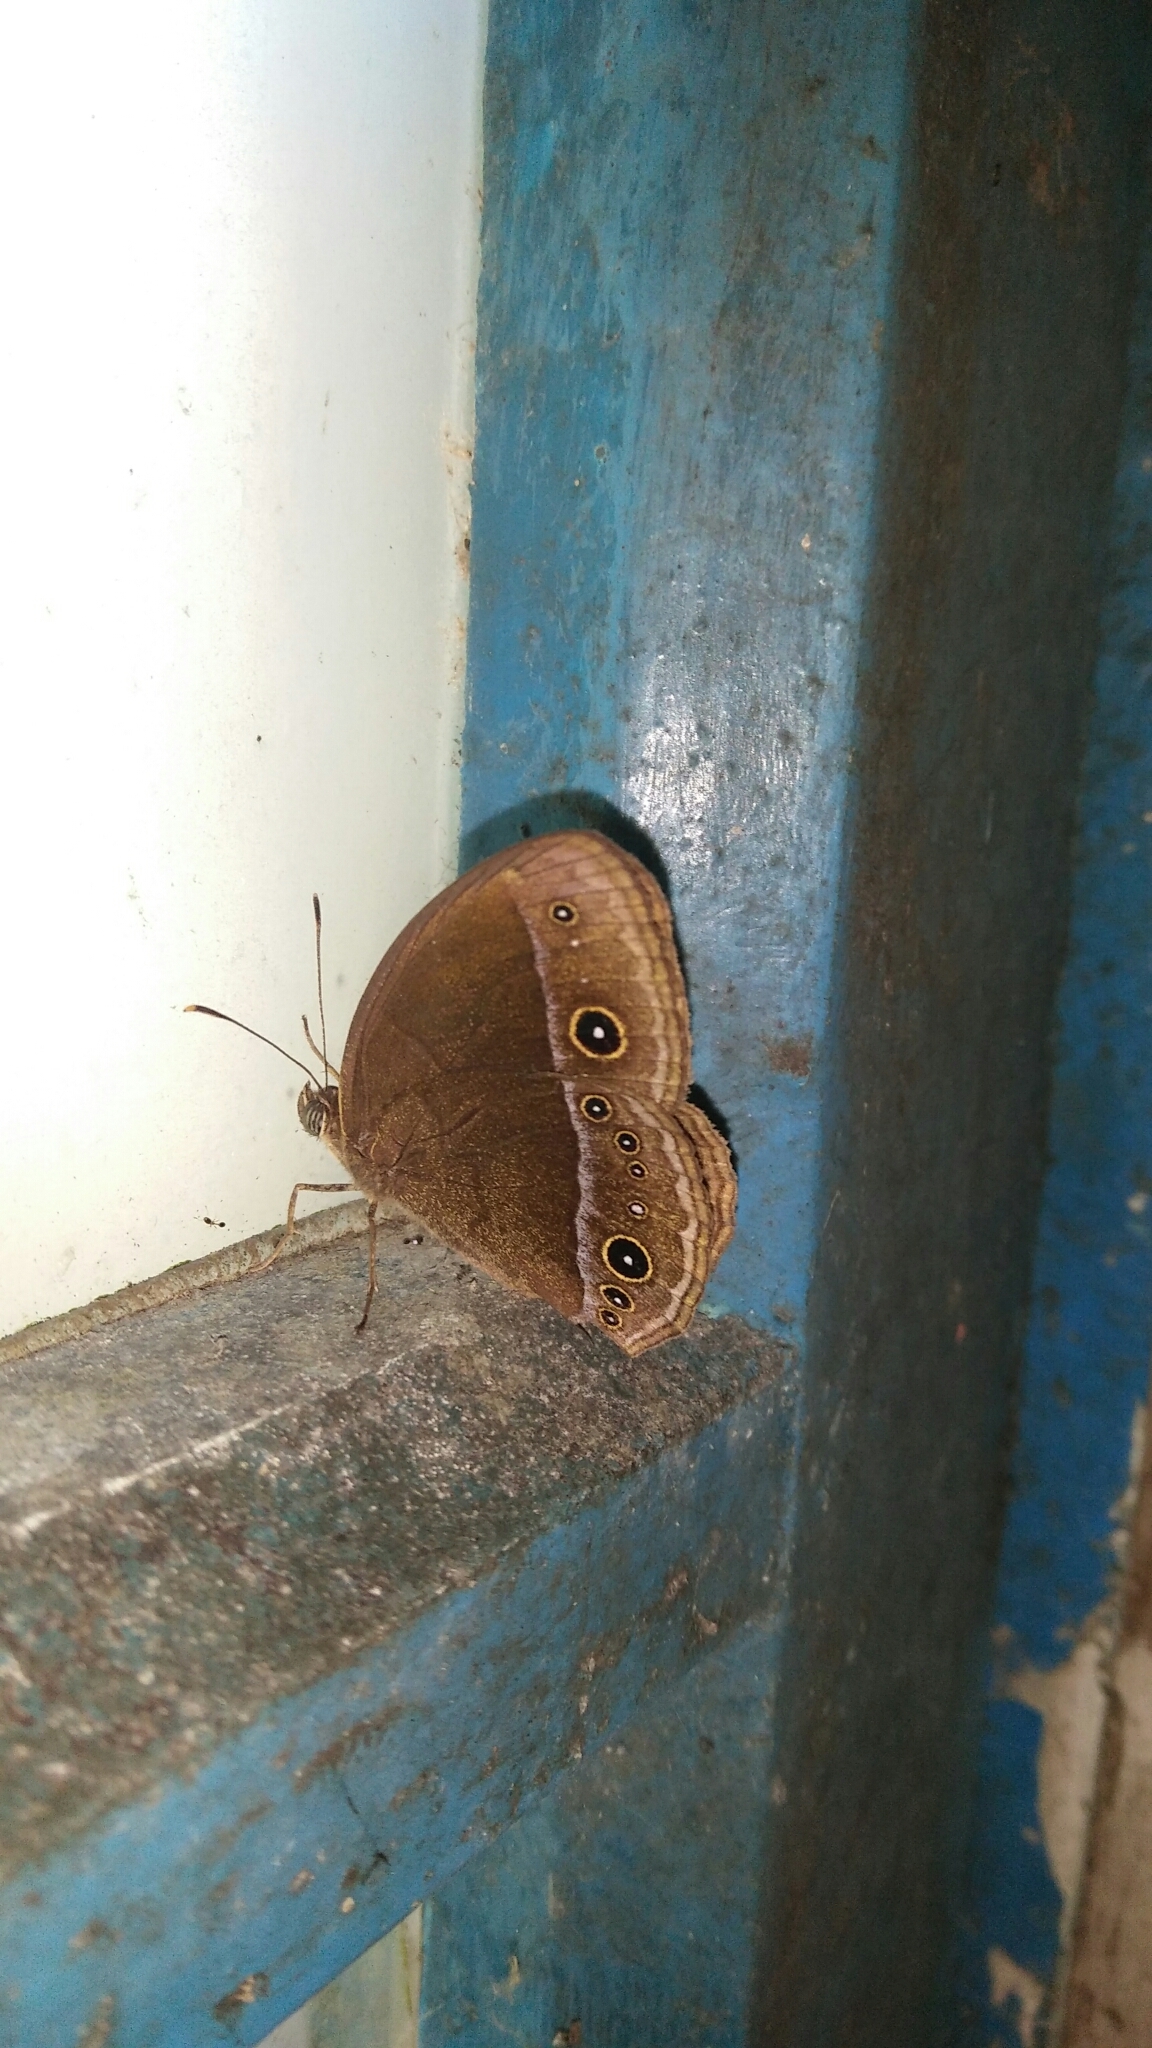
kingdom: Animalia
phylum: Arthropoda
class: Insecta
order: Lepidoptera
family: Nymphalidae
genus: Mycalesis
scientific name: Mycalesis francisca
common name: Lilacine bushbrown
